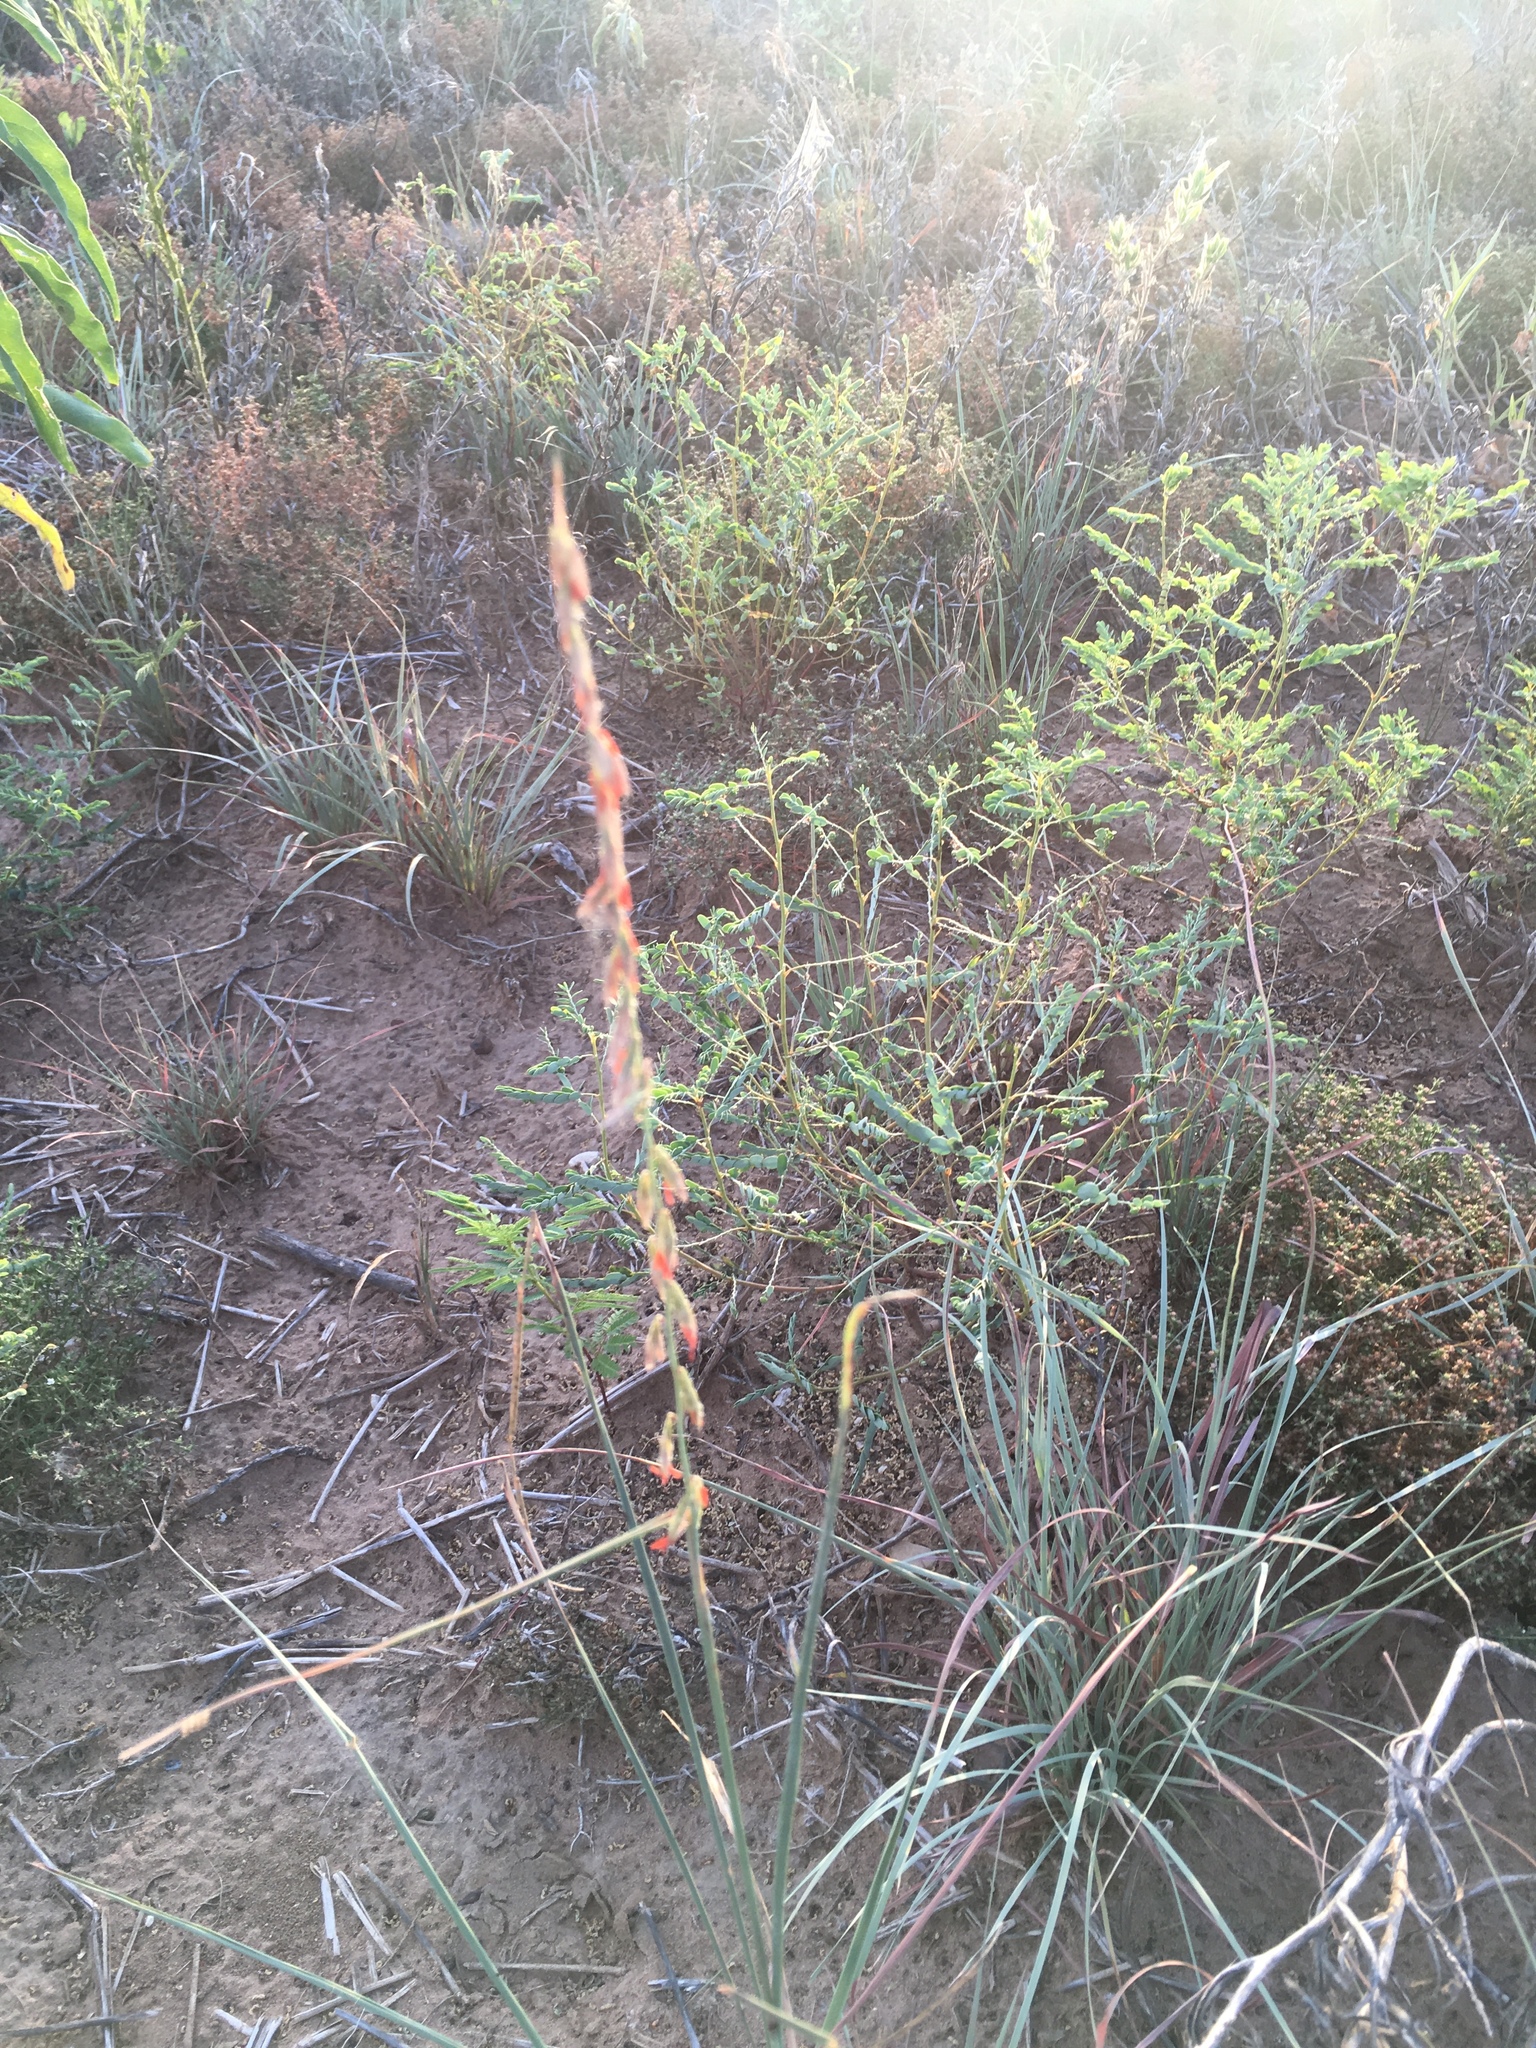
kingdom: Plantae
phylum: Tracheophyta
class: Liliopsida
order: Poales
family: Poaceae
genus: Bouteloua
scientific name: Bouteloua curtipendula
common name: Side-oats grama
